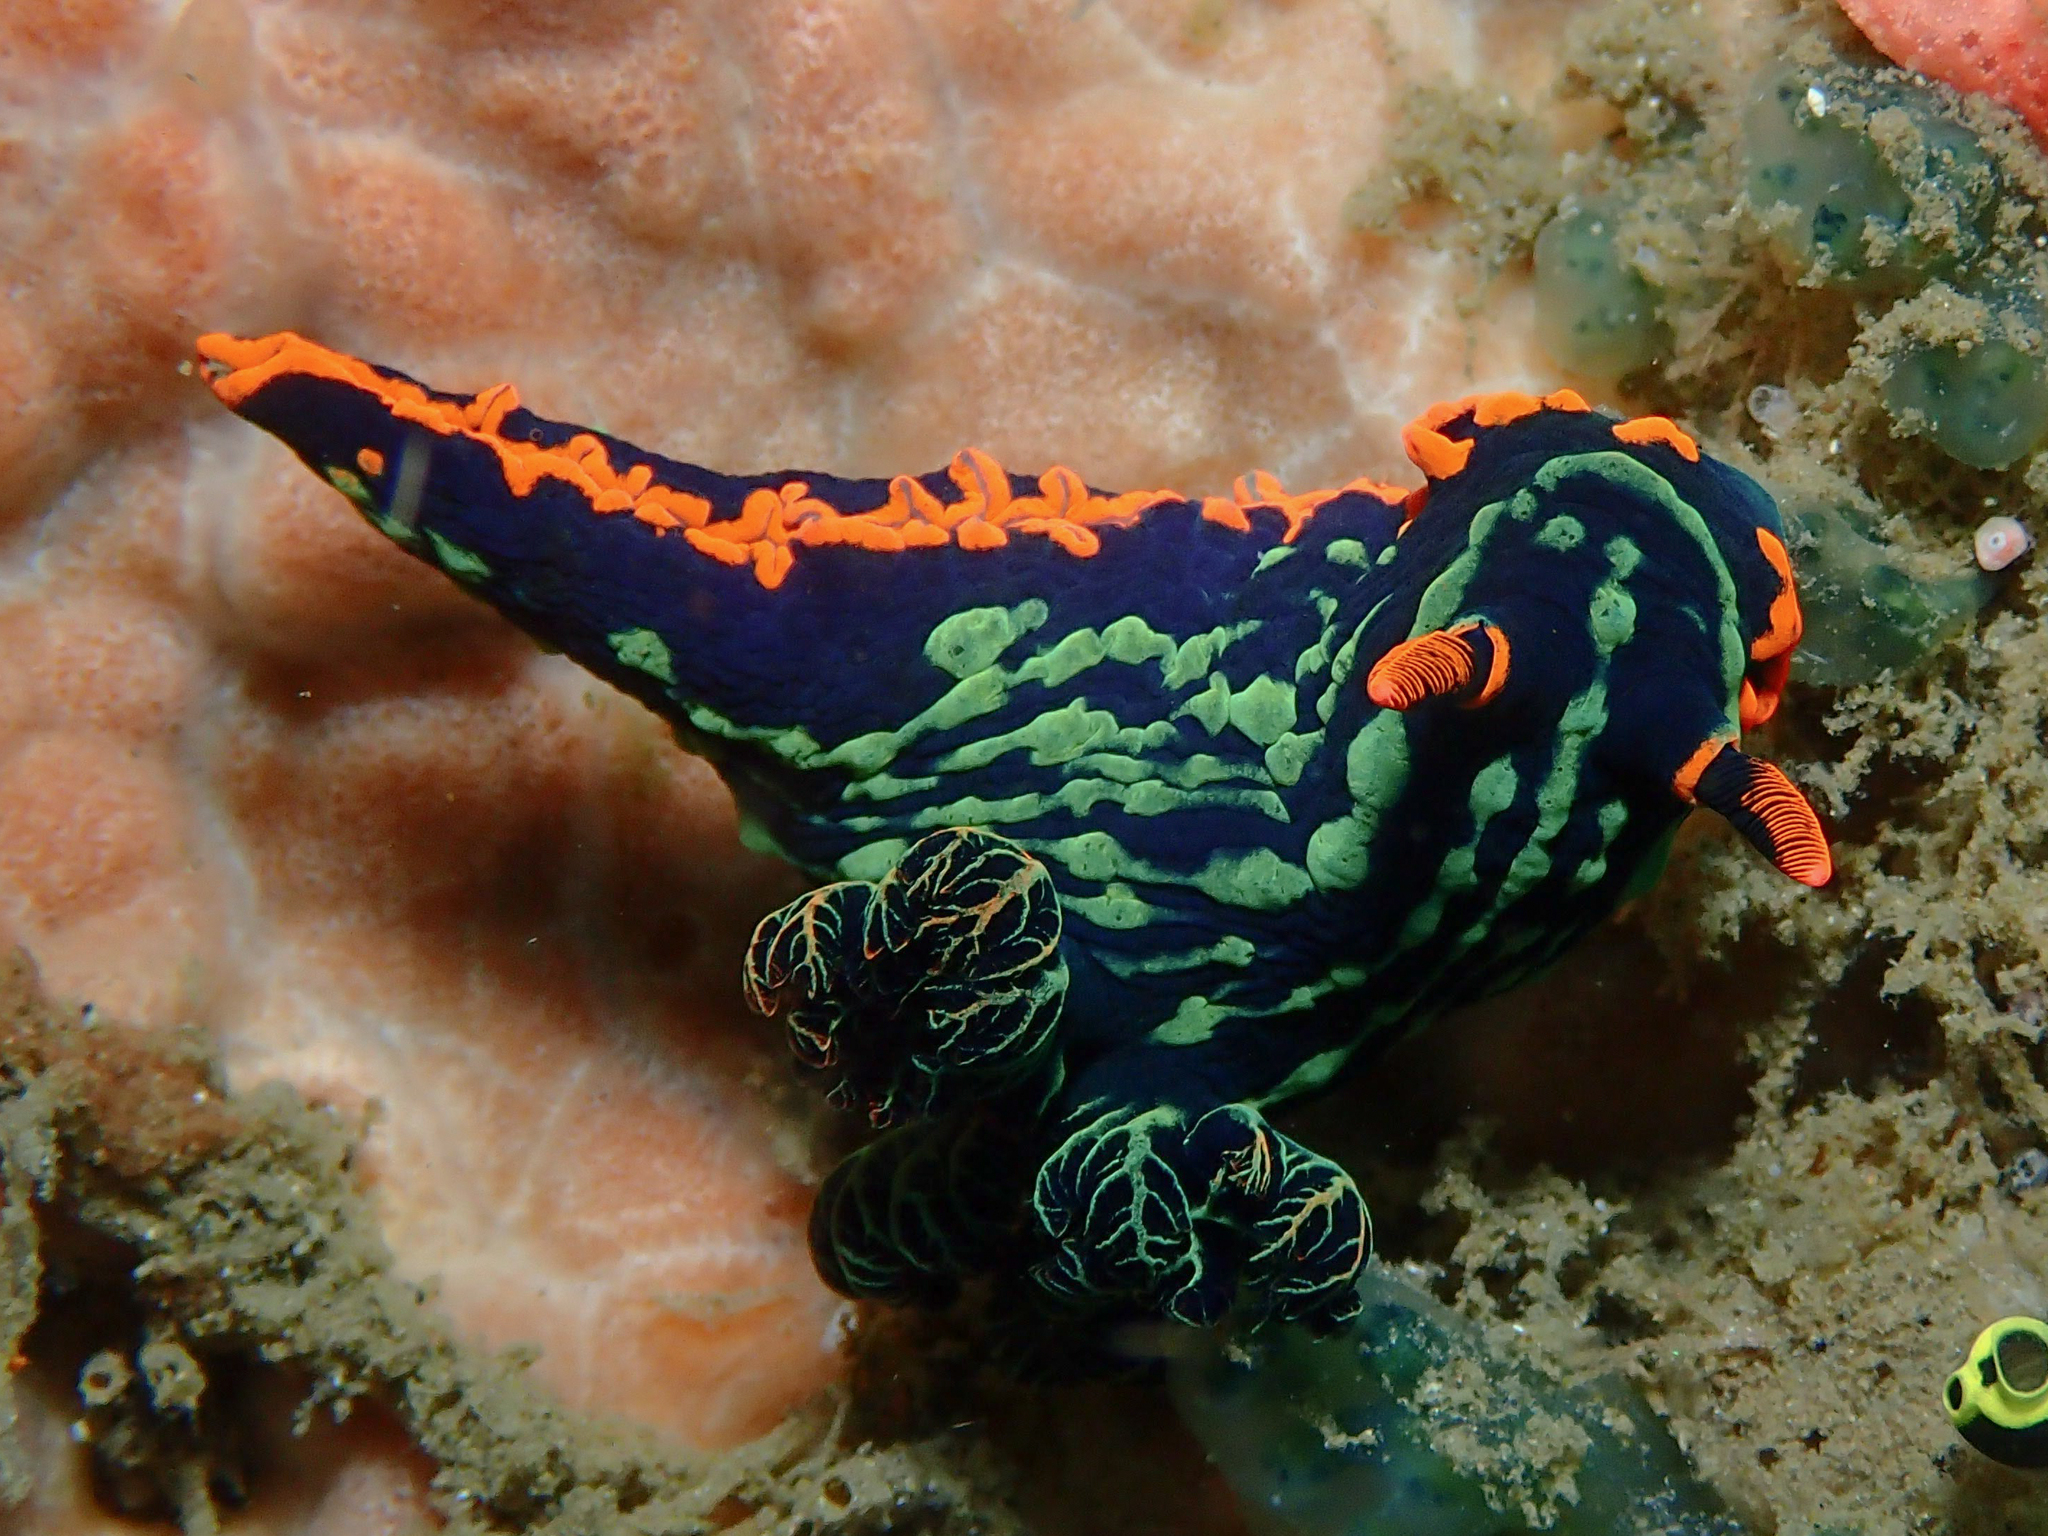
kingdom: Animalia
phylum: Mollusca
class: Gastropoda
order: Nudibranchia
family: Polyceridae
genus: Nembrotha
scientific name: Nembrotha kubaryana
